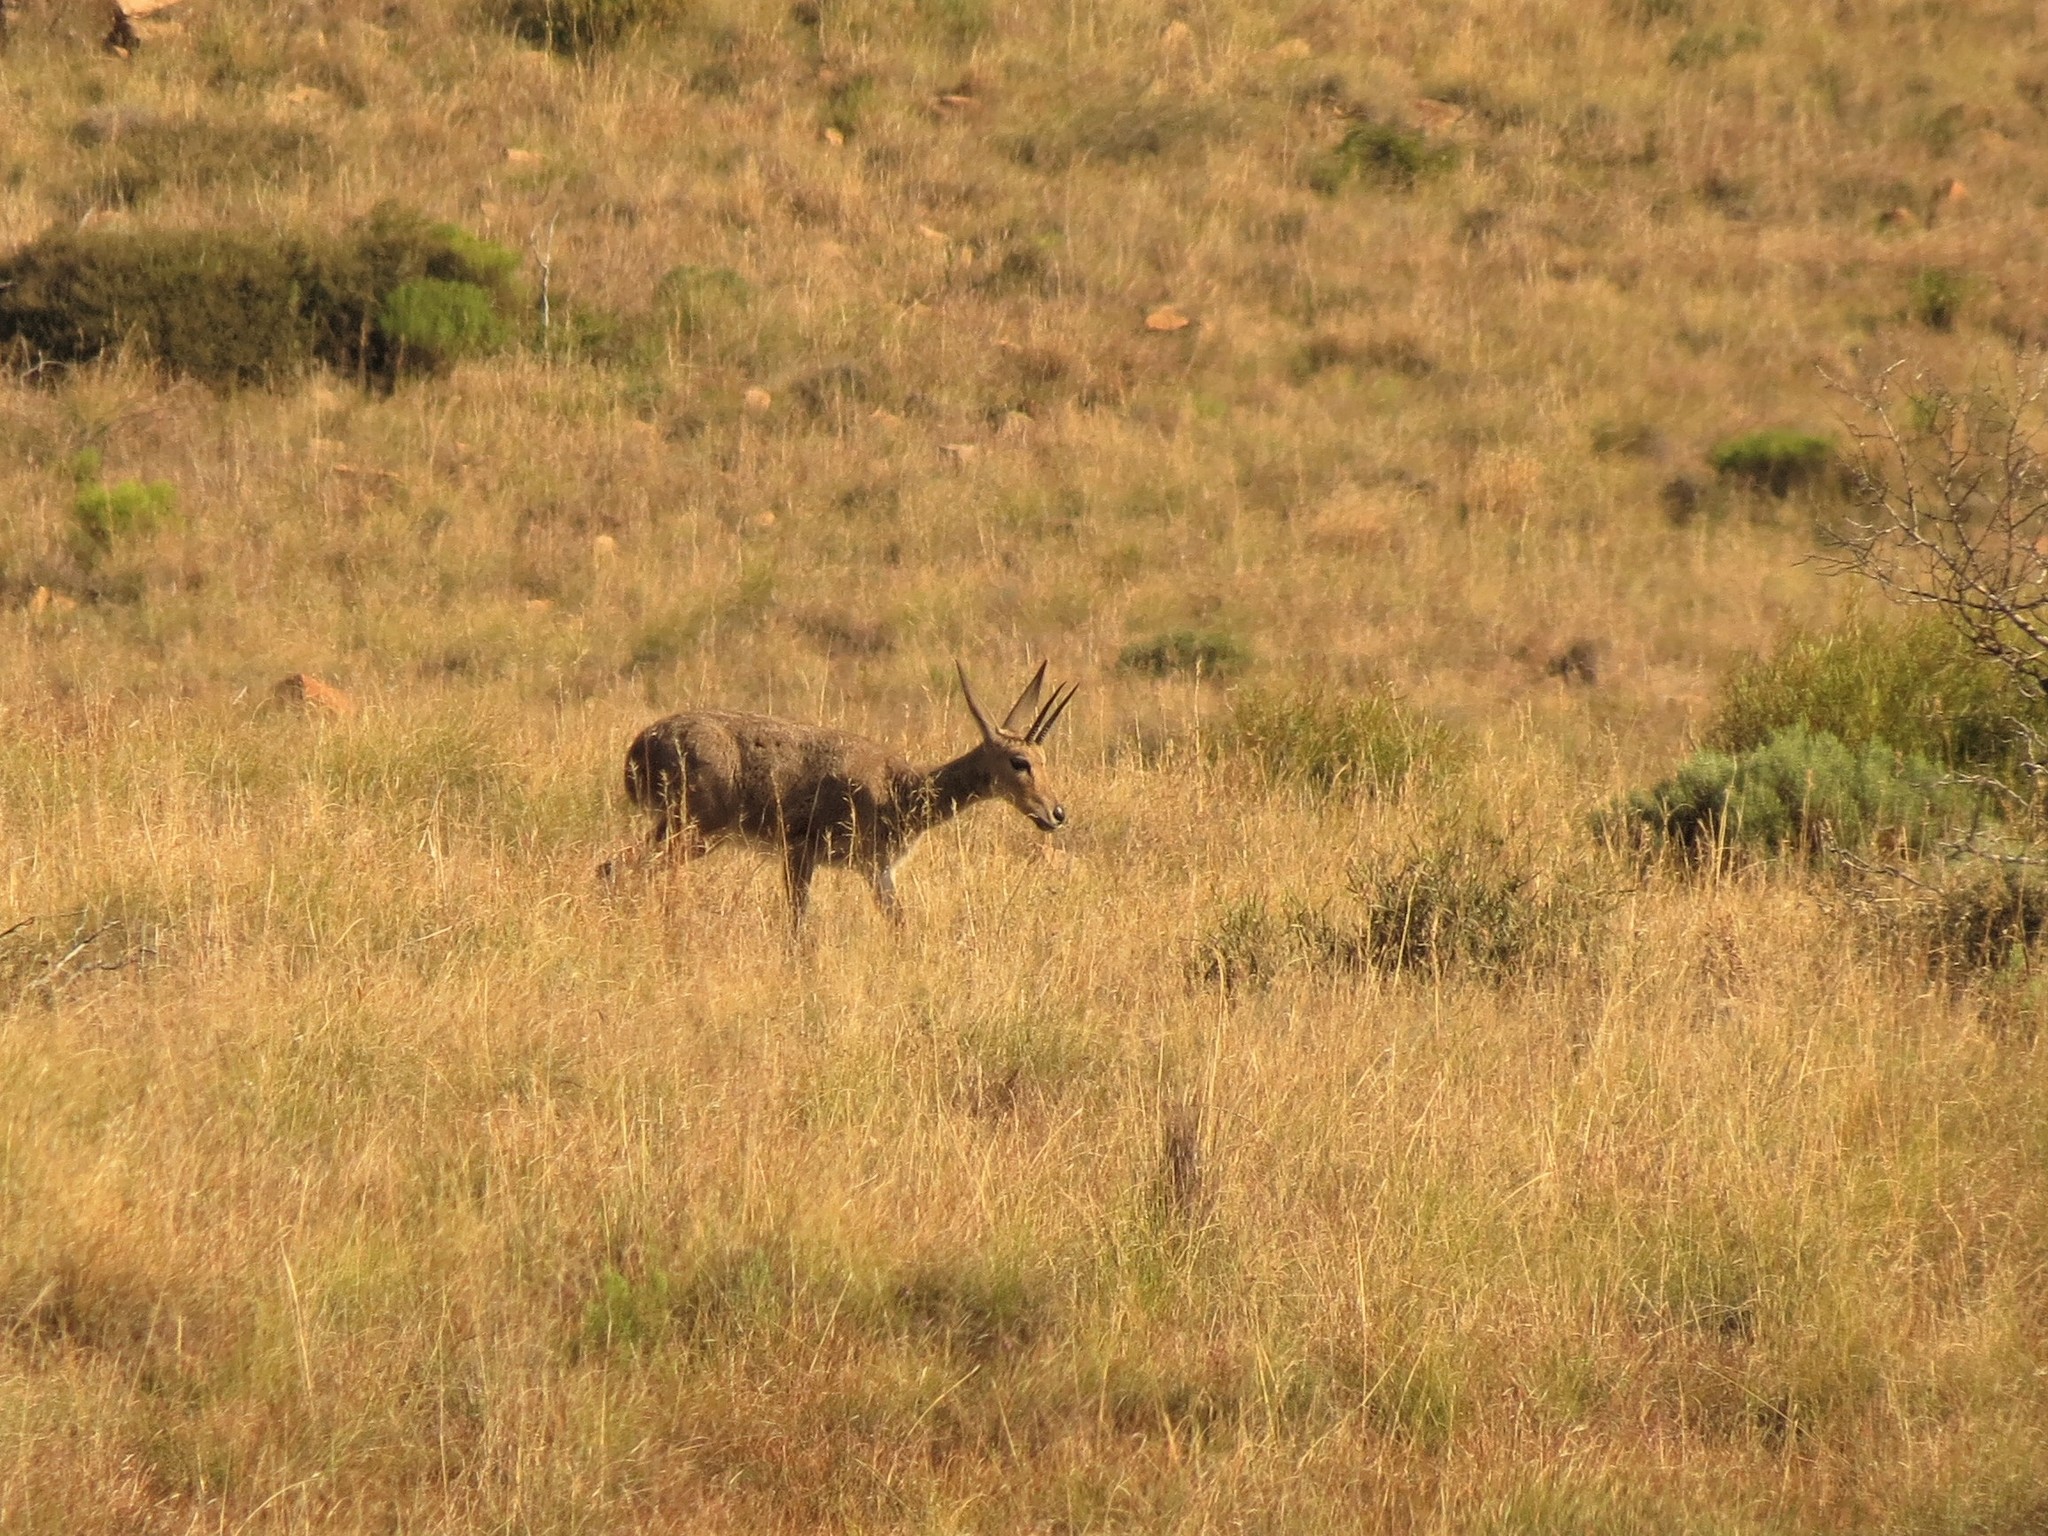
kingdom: Animalia
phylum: Chordata
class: Mammalia
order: Artiodactyla
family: Bovidae
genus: Pelea
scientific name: Pelea capreolus
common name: Common rhebok
